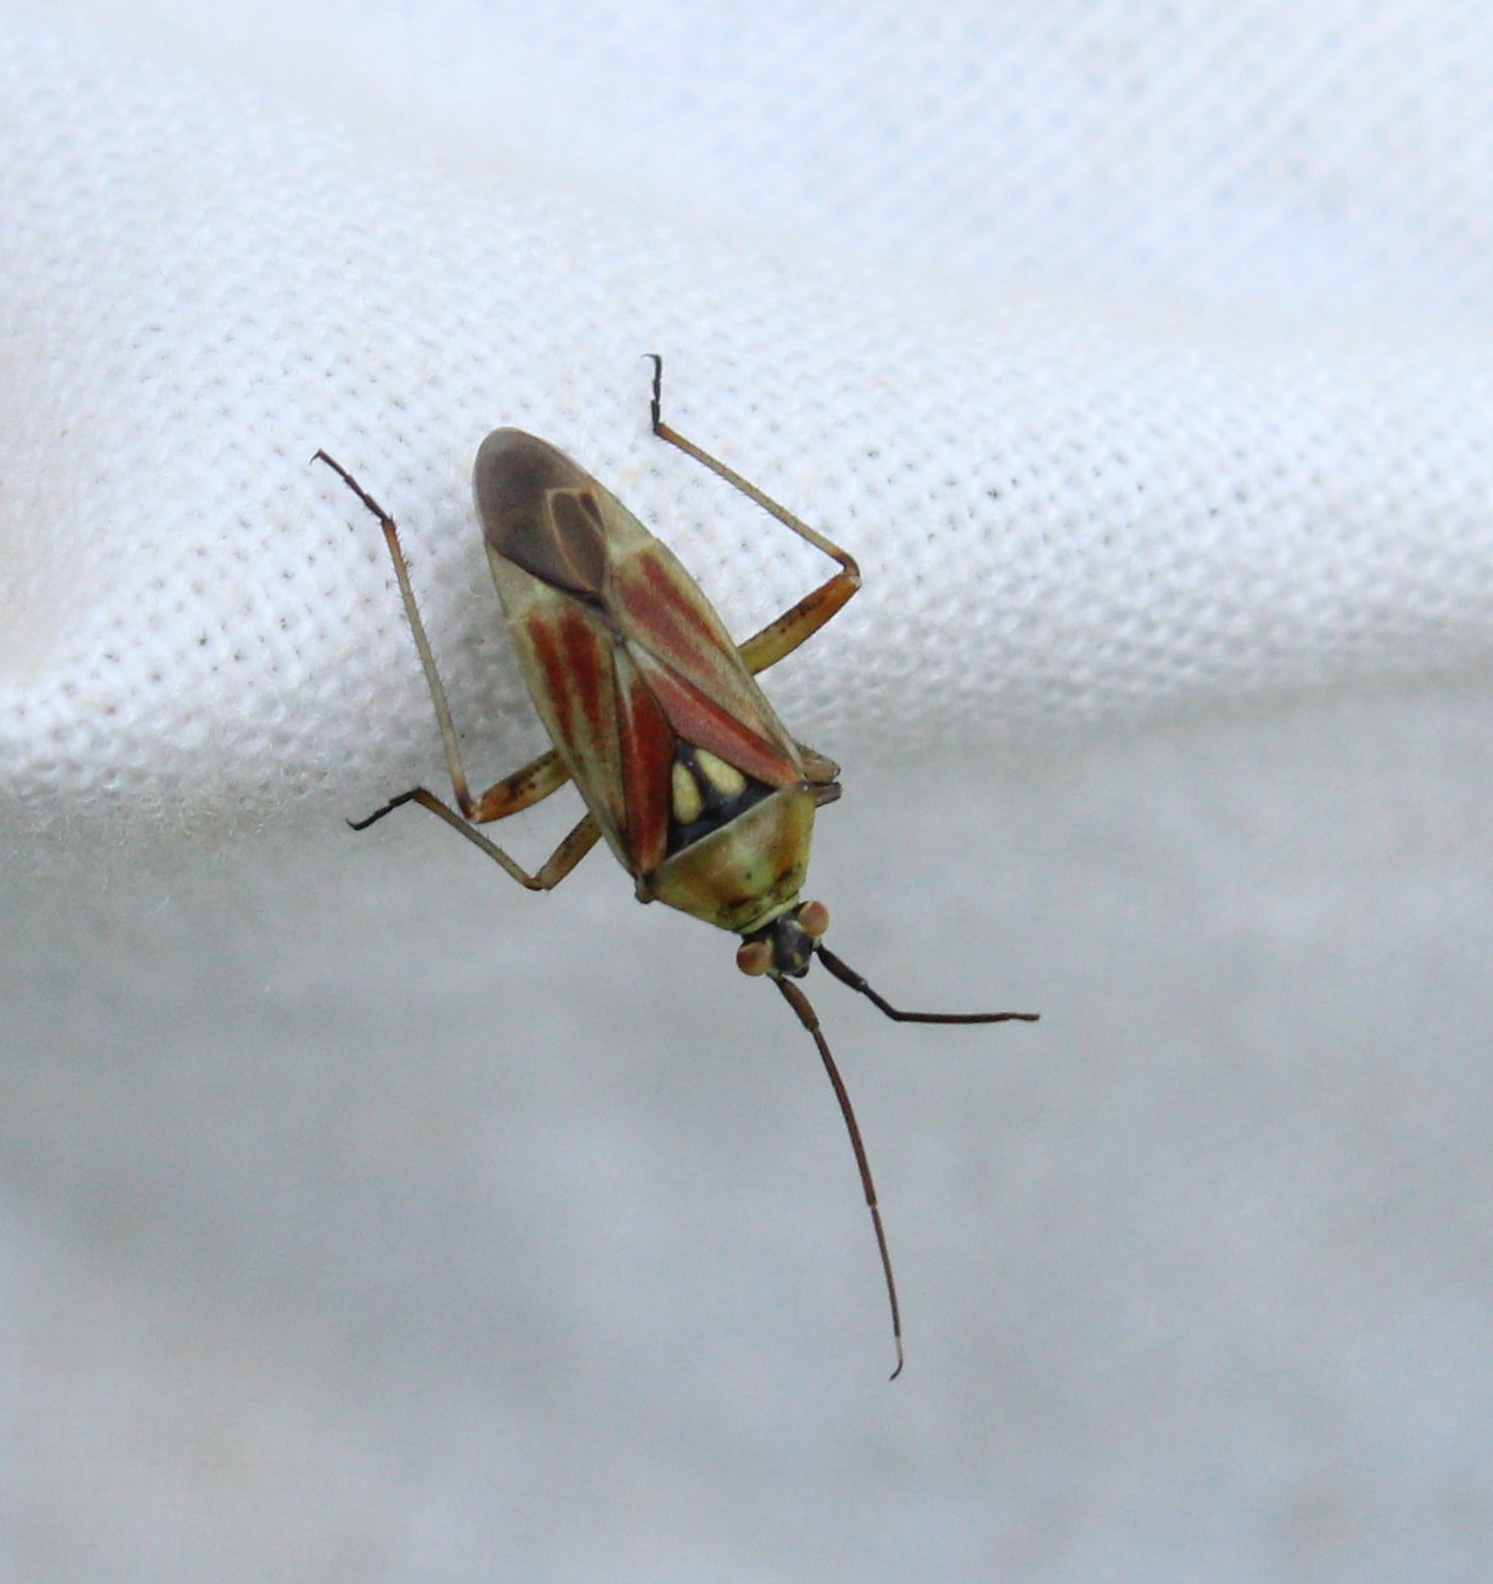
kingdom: Animalia
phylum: Arthropoda
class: Insecta
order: Hemiptera
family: Miridae
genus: Calocoris
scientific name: Calocoris roseomaculatus
